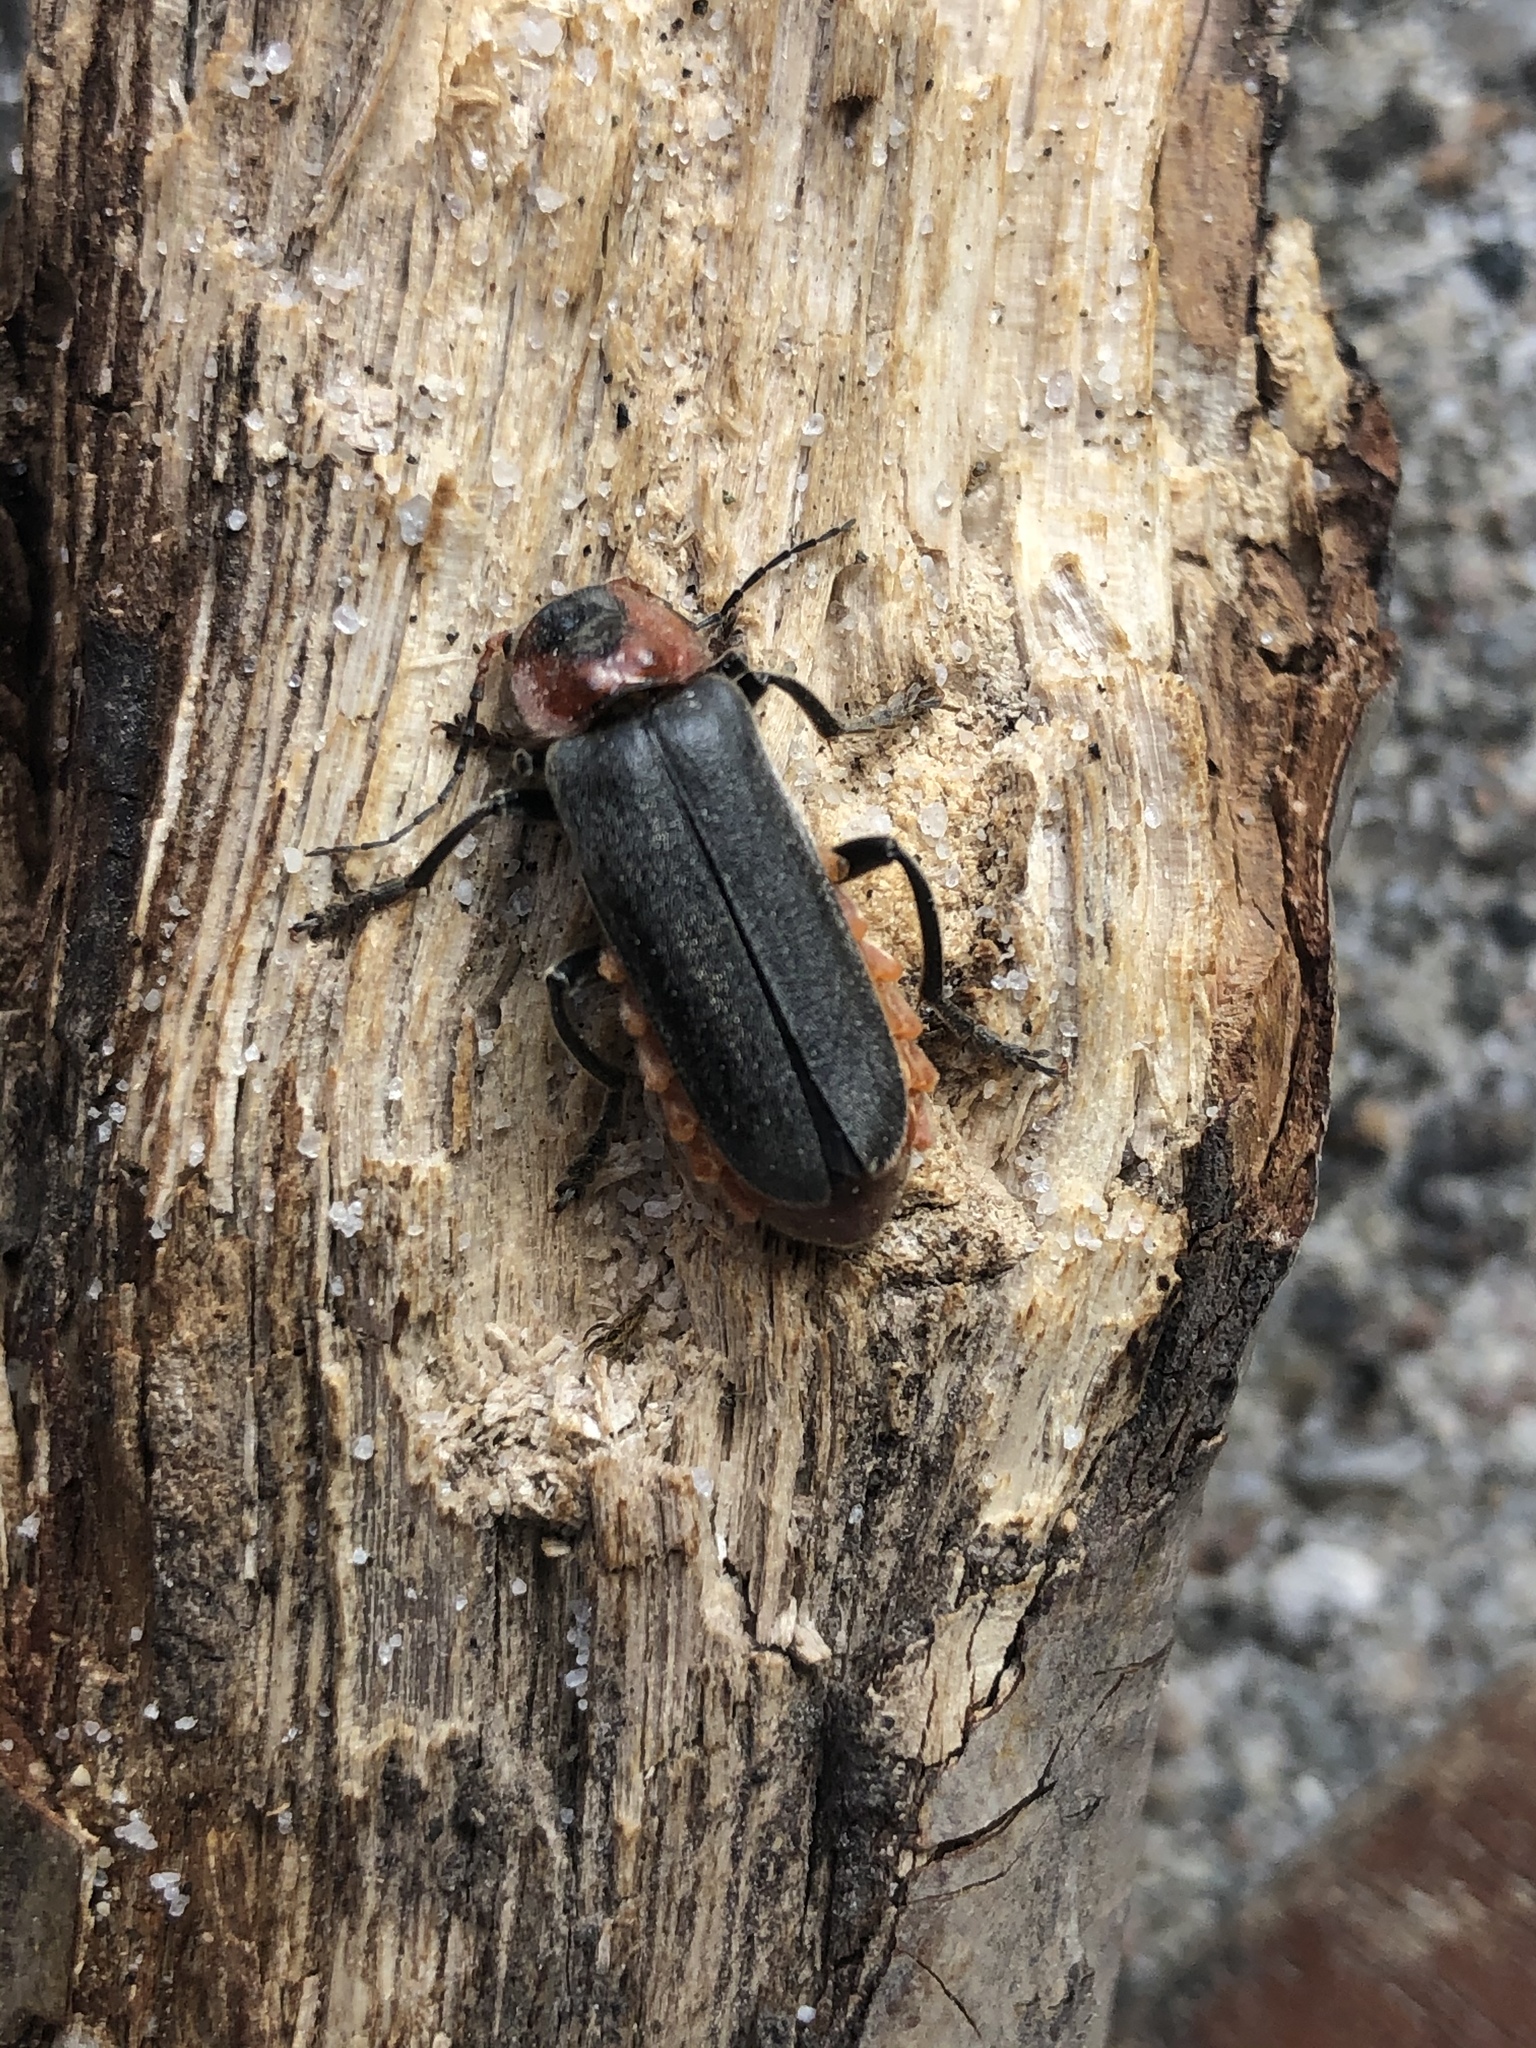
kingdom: Animalia
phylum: Arthropoda
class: Insecta
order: Coleoptera
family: Cantharidae
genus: Cantharis
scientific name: Cantharis fusca
